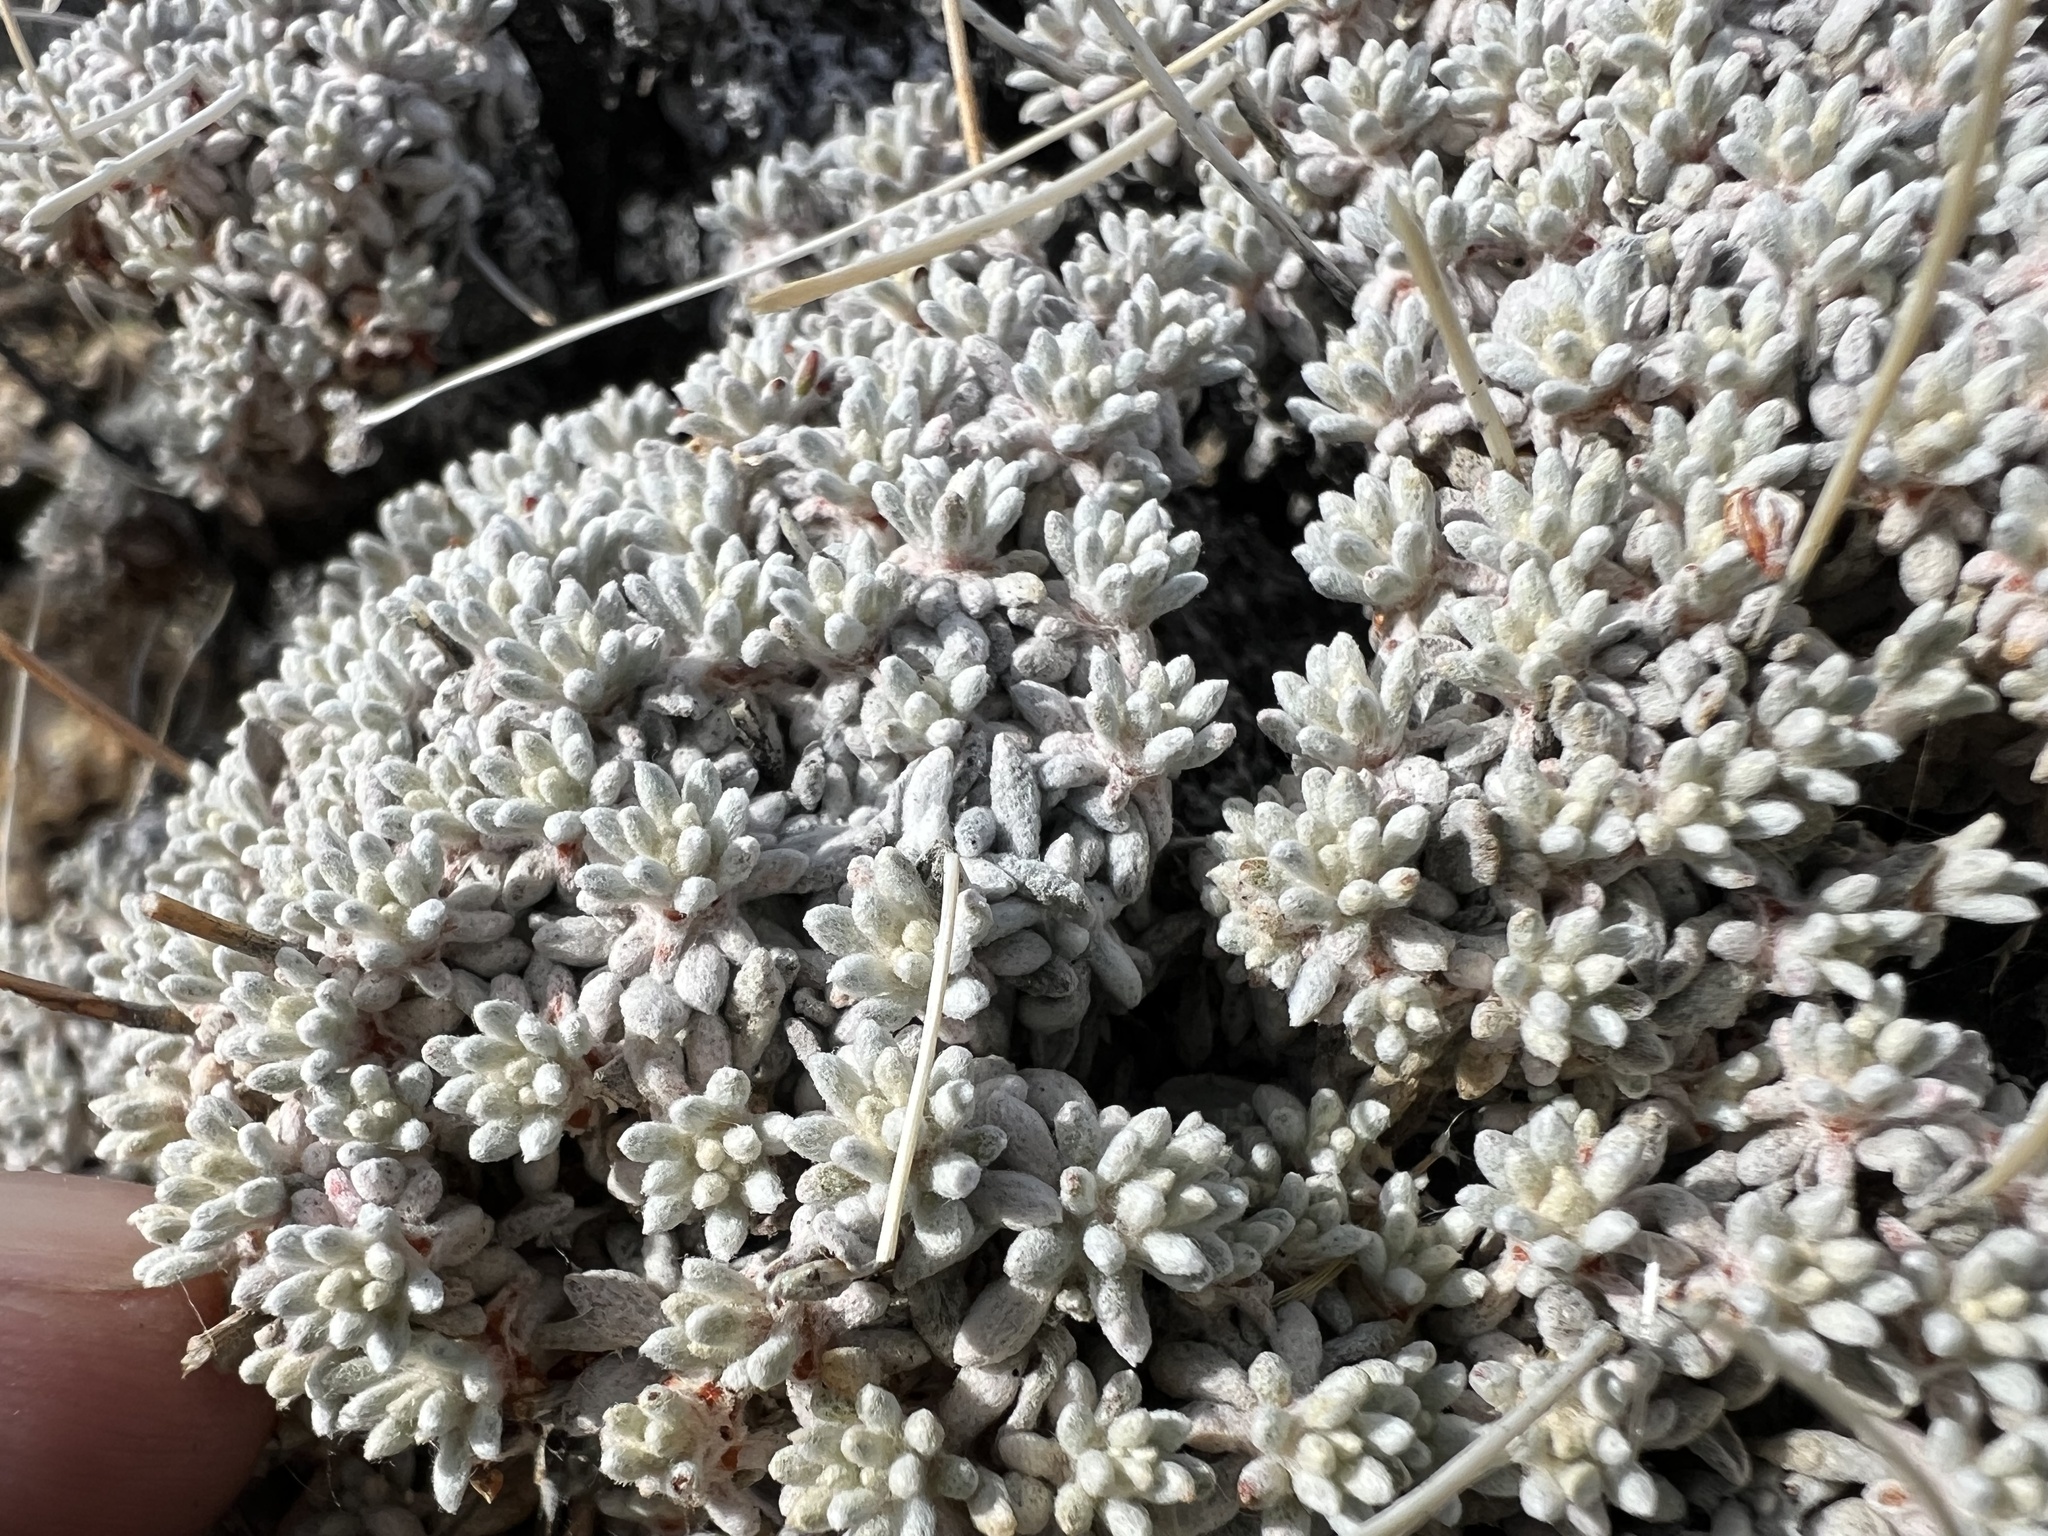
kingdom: Plantae
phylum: Tracheophyta
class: Magnoliopsida
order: Caryophyllales
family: Polygonaceae
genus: Eriogonum
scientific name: Eriogonum kennedyi
